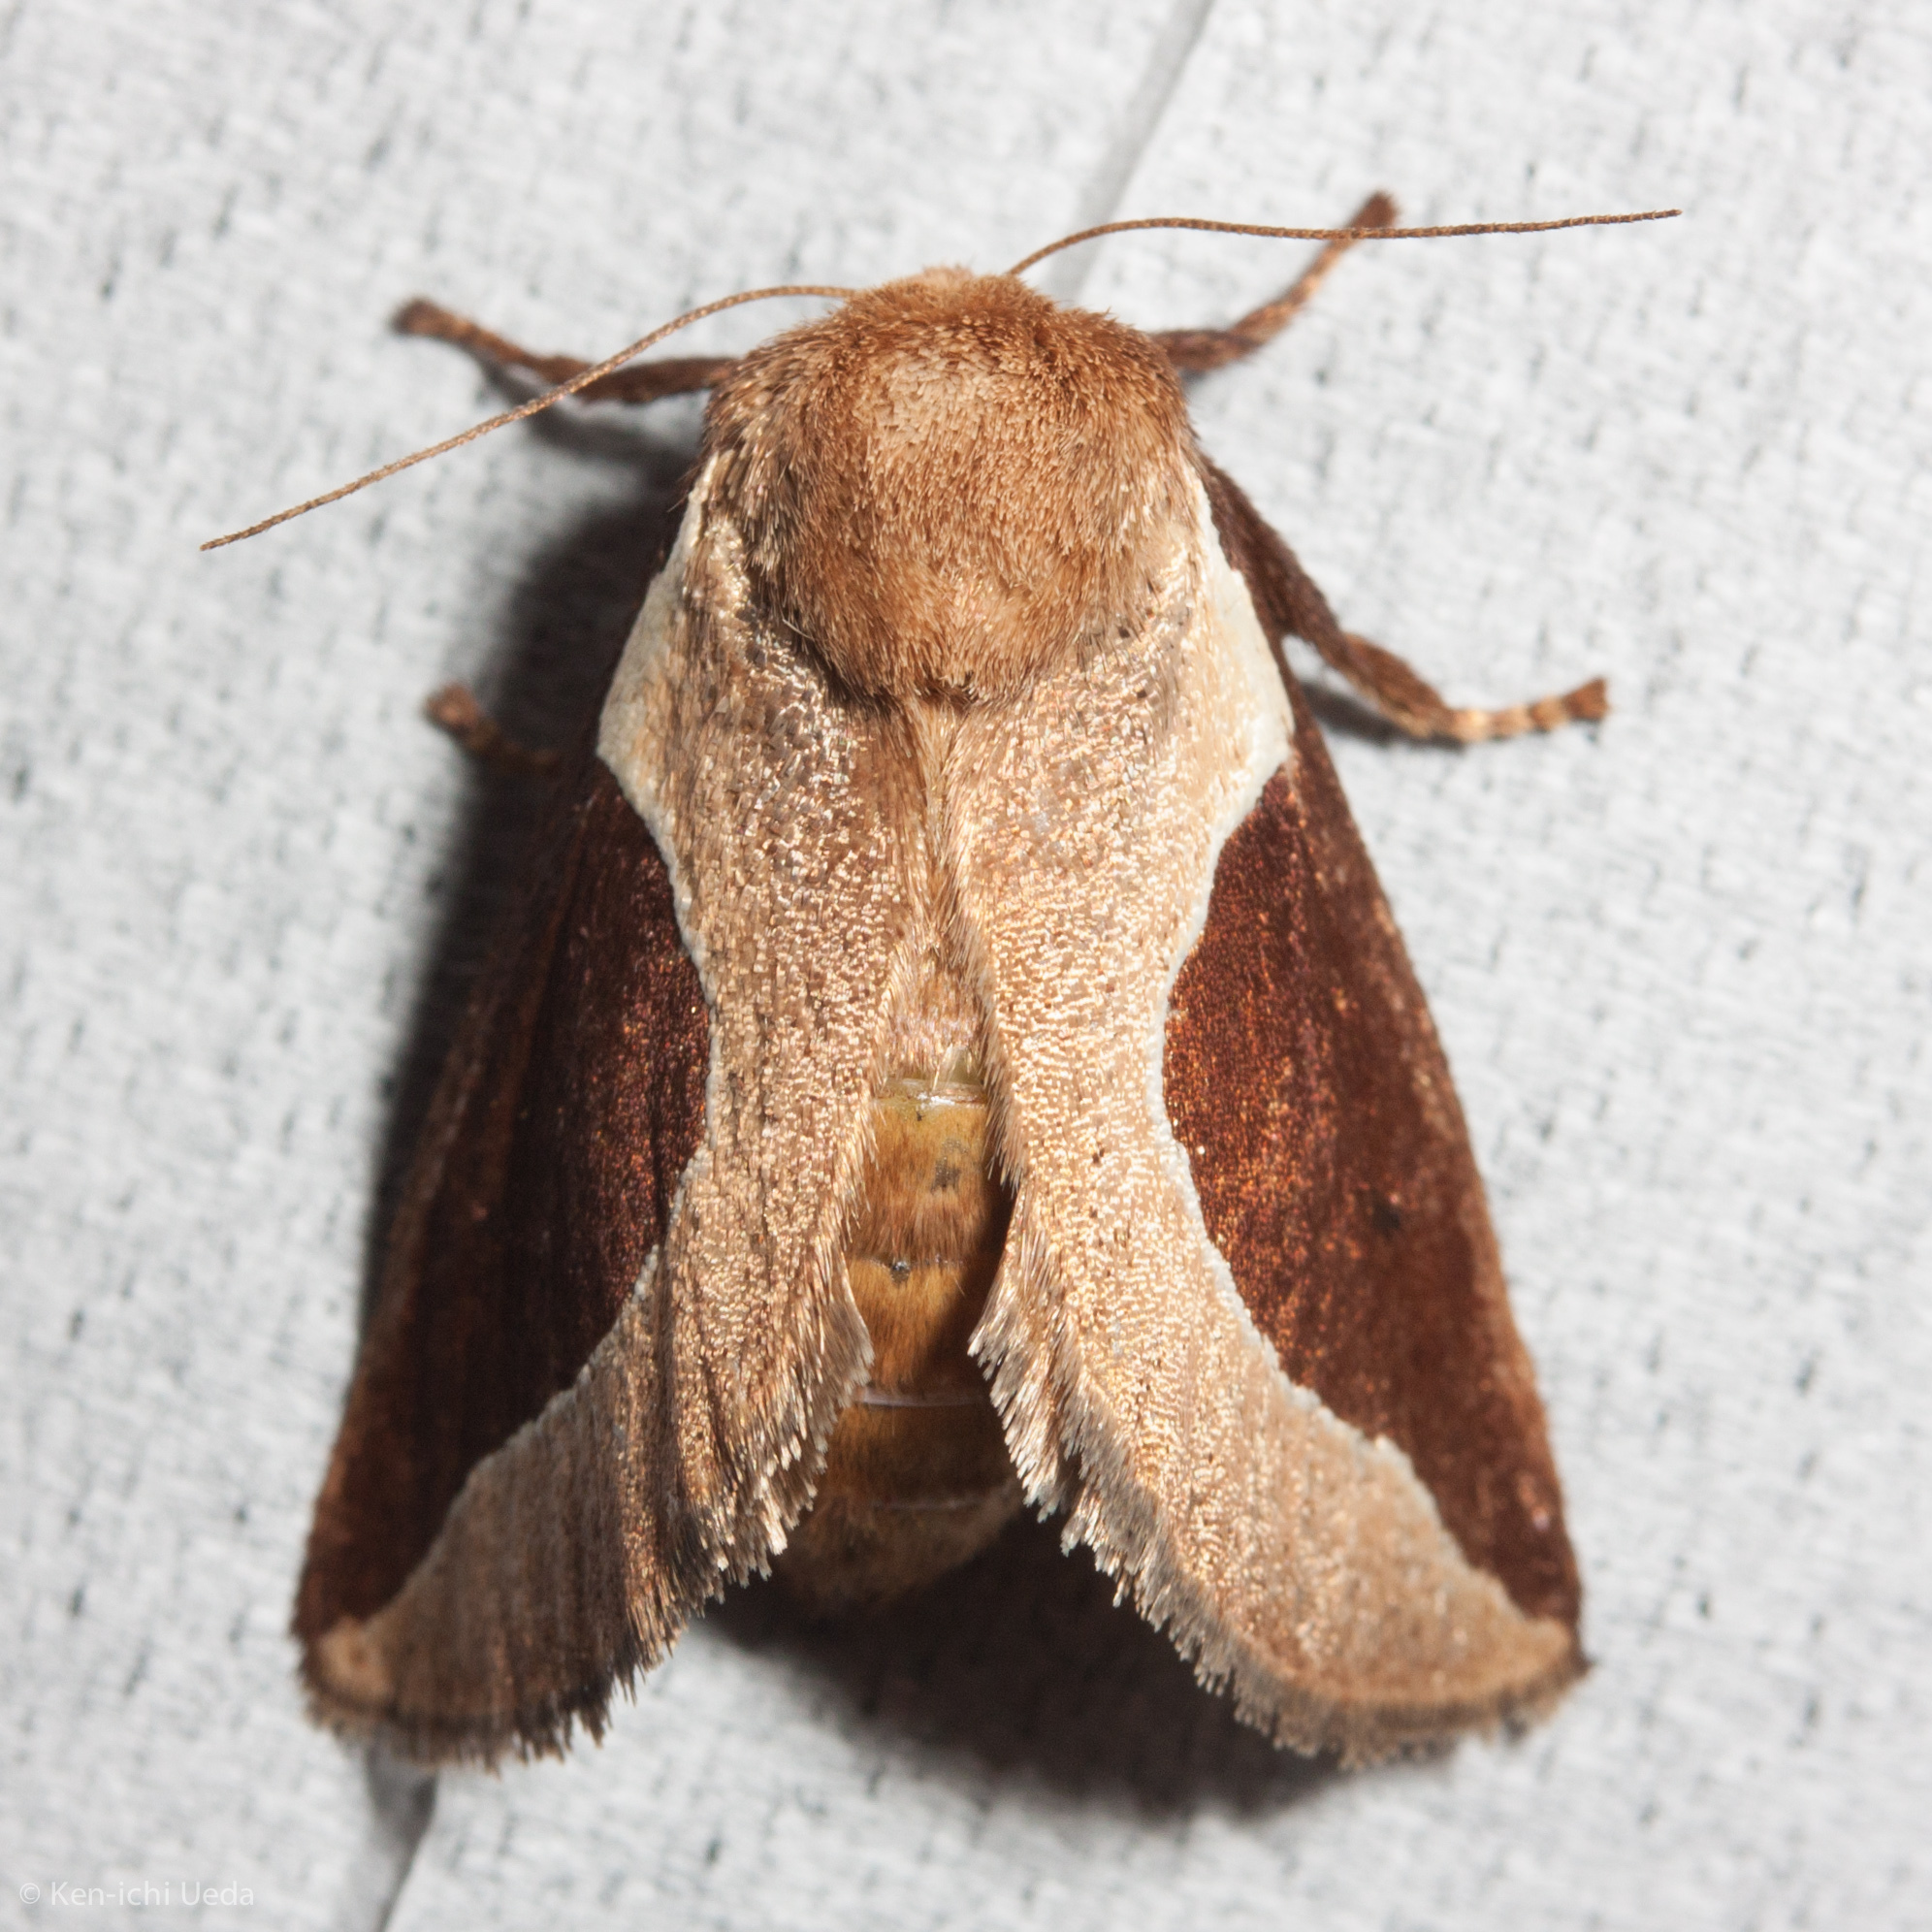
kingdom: Animalia
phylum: Arthropoda
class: Insecta
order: Lepidoptera
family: Limacodidae
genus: Prolimacodes
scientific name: Prolimacodes badia
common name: Skiff moth
